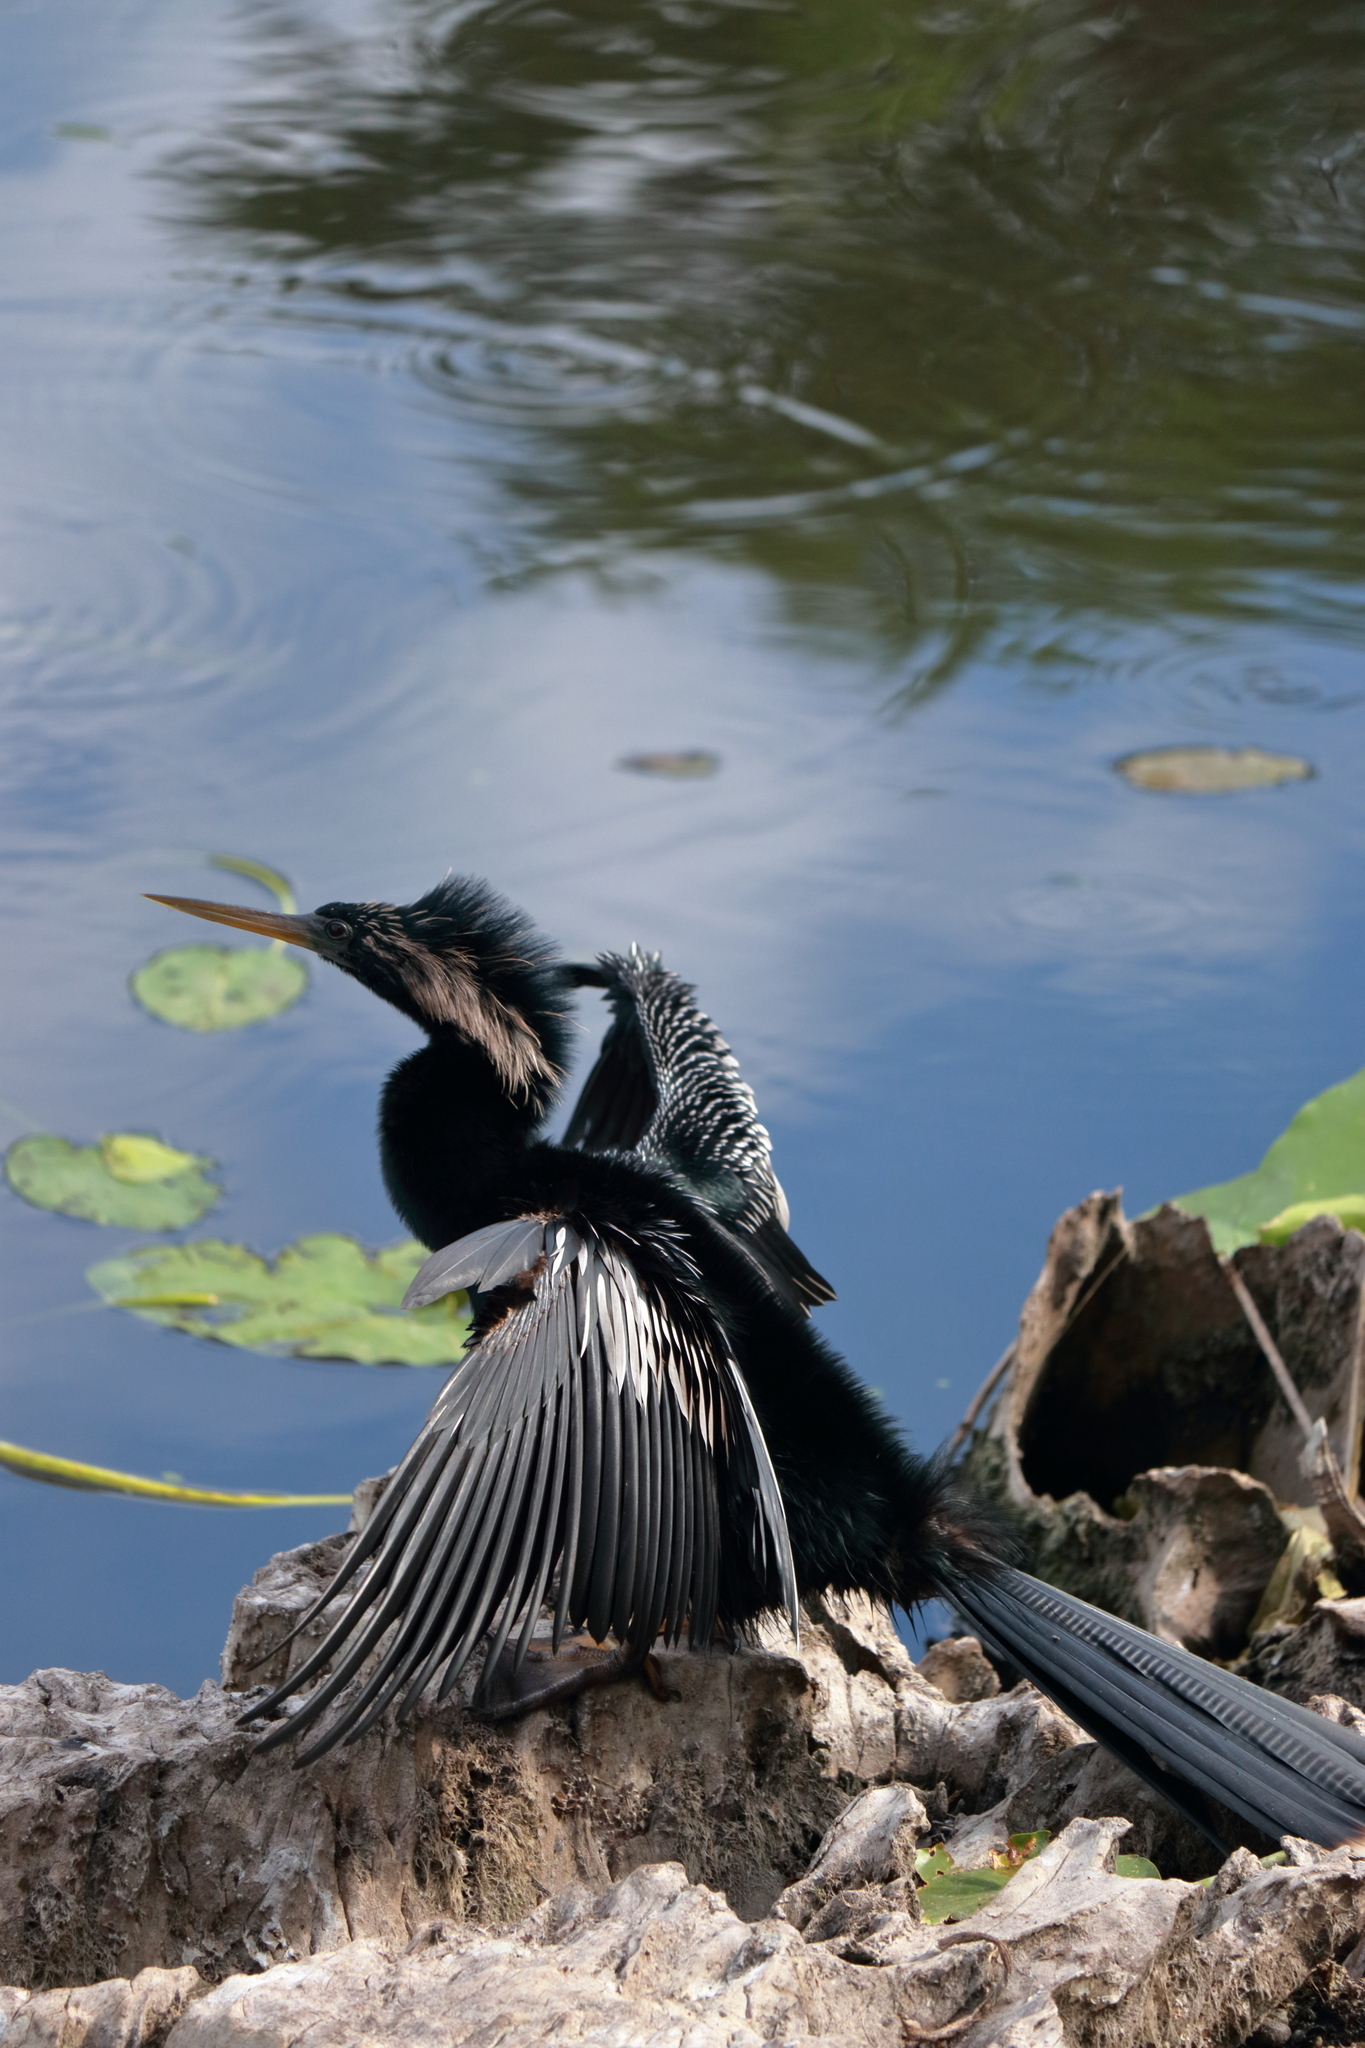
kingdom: Animalia
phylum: Chordata
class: Aves
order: Suliformes
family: Anhingidae
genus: Anhinga
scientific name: Anhinga anhinga
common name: Anhinga
